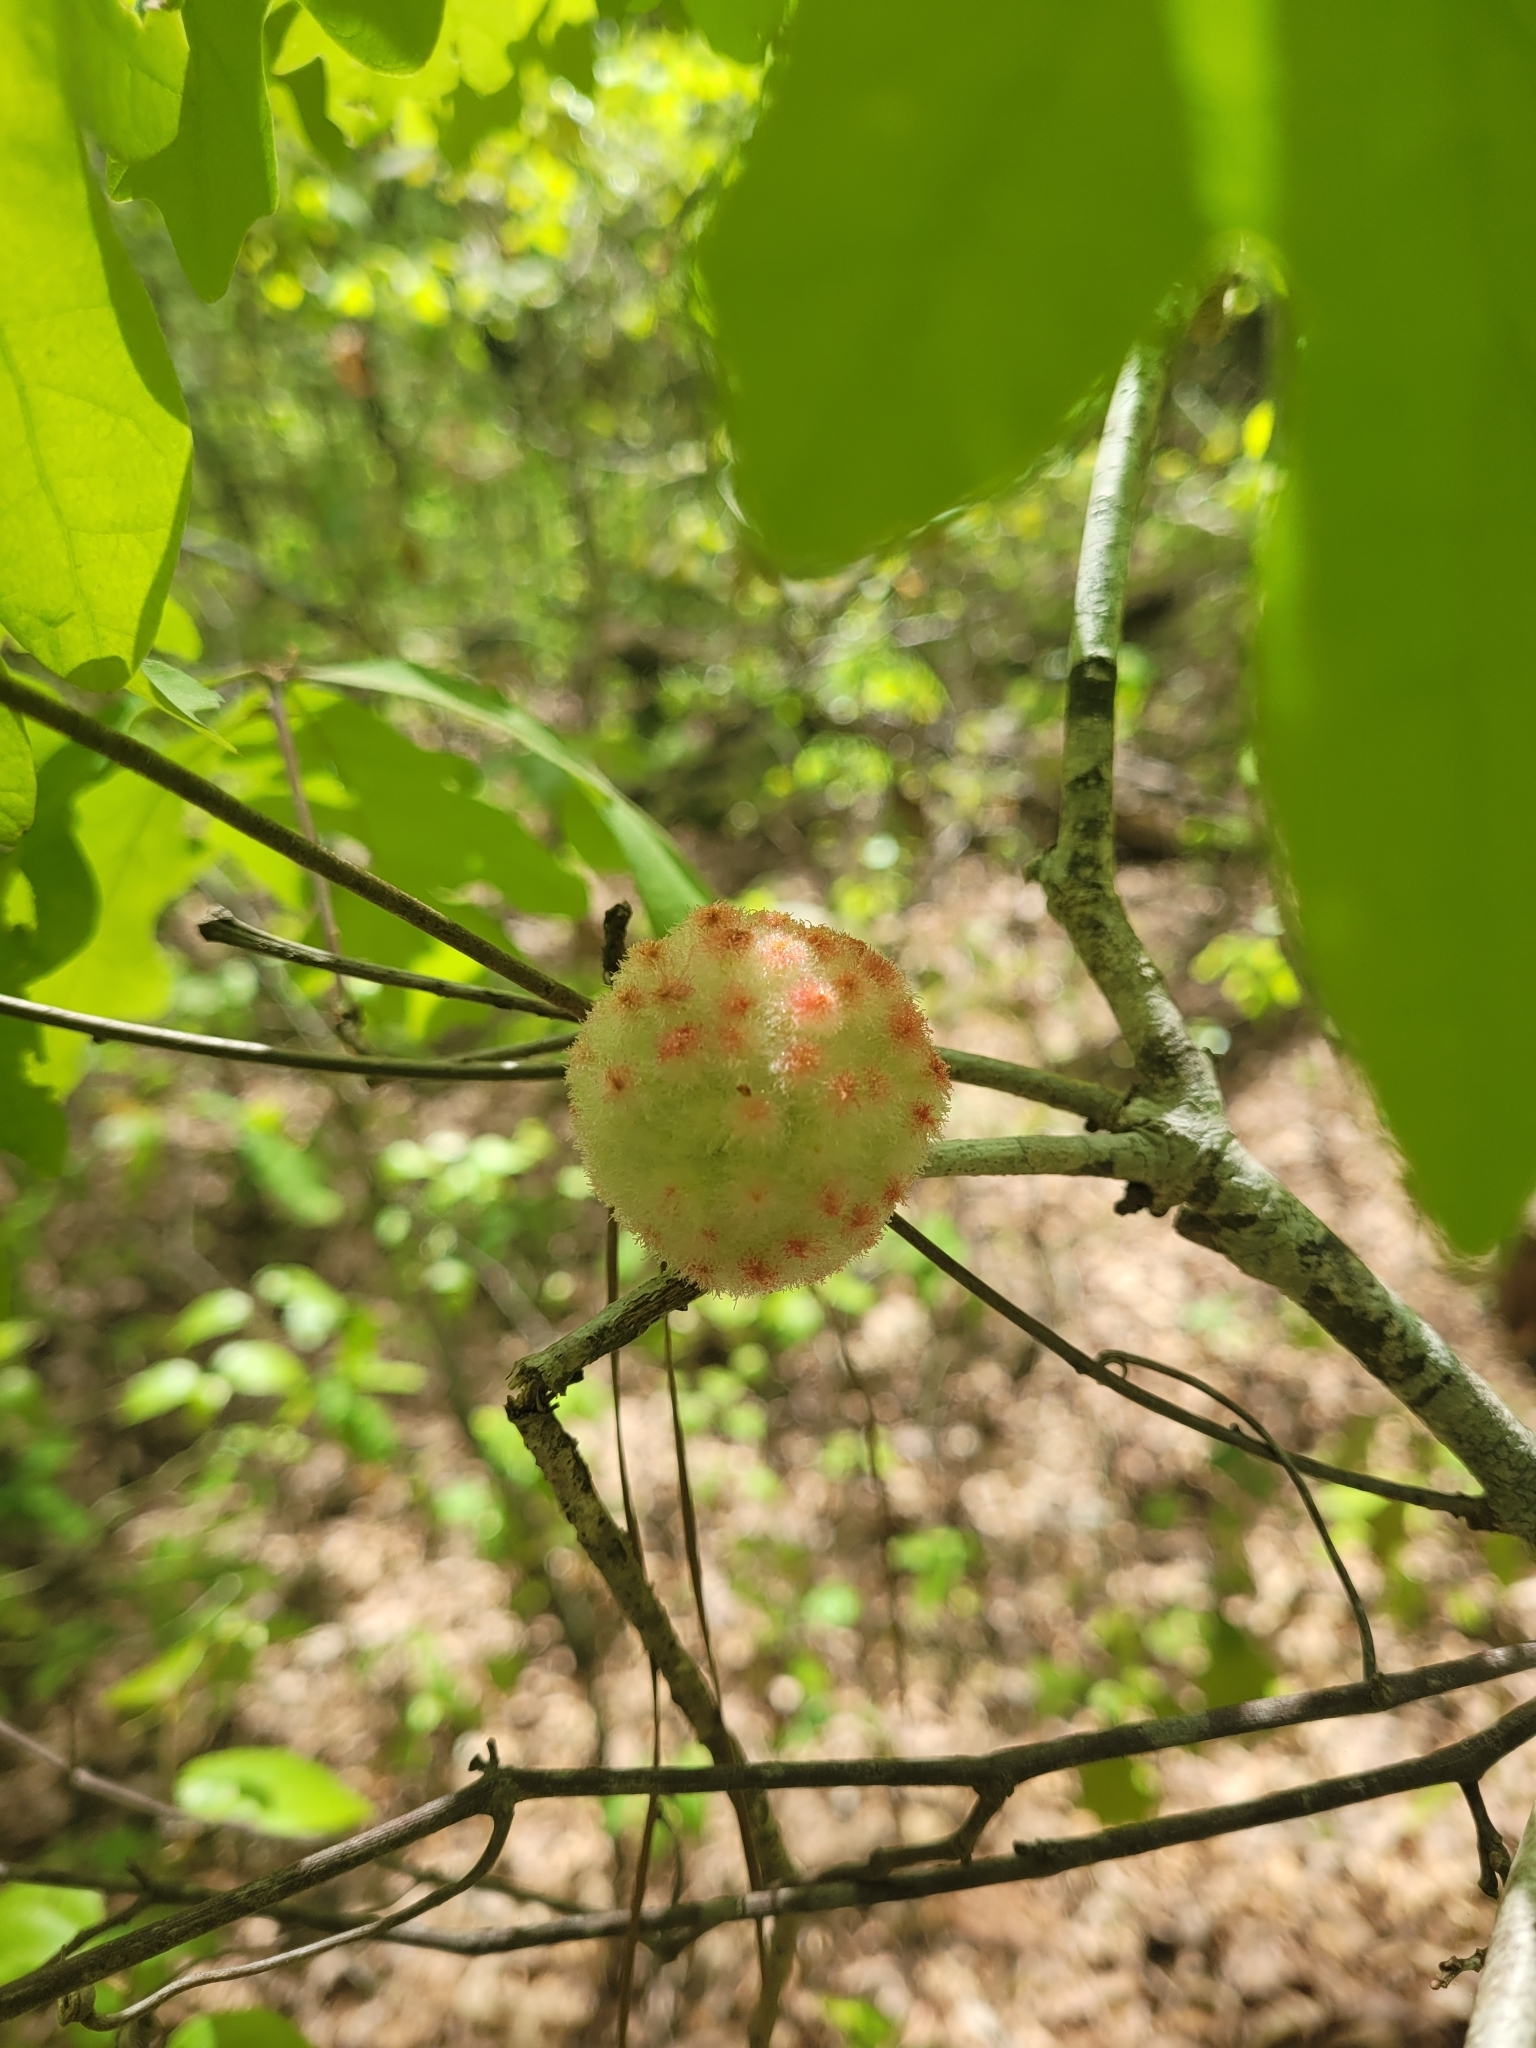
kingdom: Animalia
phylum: Arthropoda
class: Insecta
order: Hymenoptera
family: Cynipidae
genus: Callirhytis
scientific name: Callirhytis
